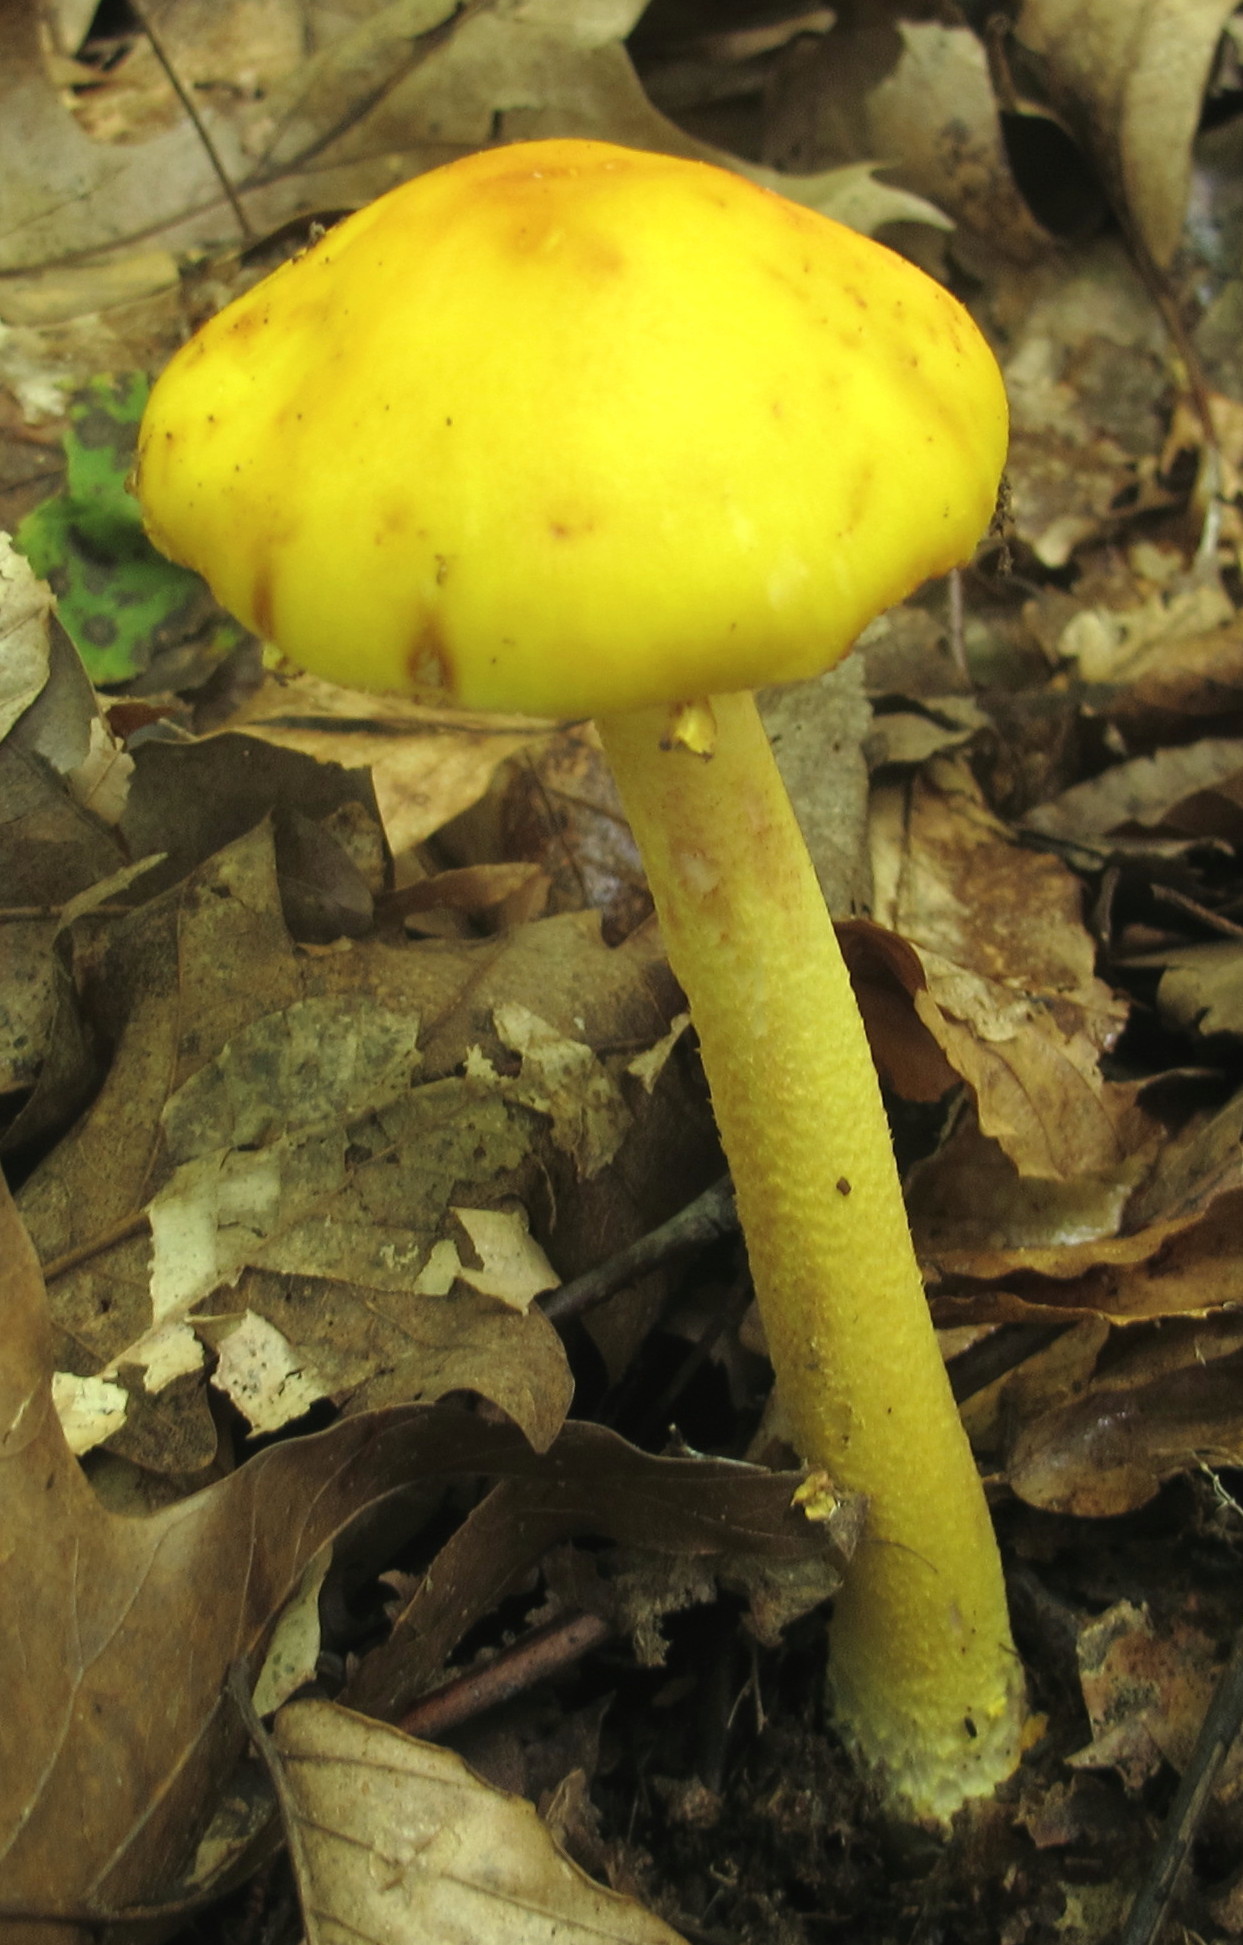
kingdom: Fungi
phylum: Basidiomycota
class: Agaricomycetes
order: Agaricales
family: Amanitaceae
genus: Amanita
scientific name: Amanita flavorubens
